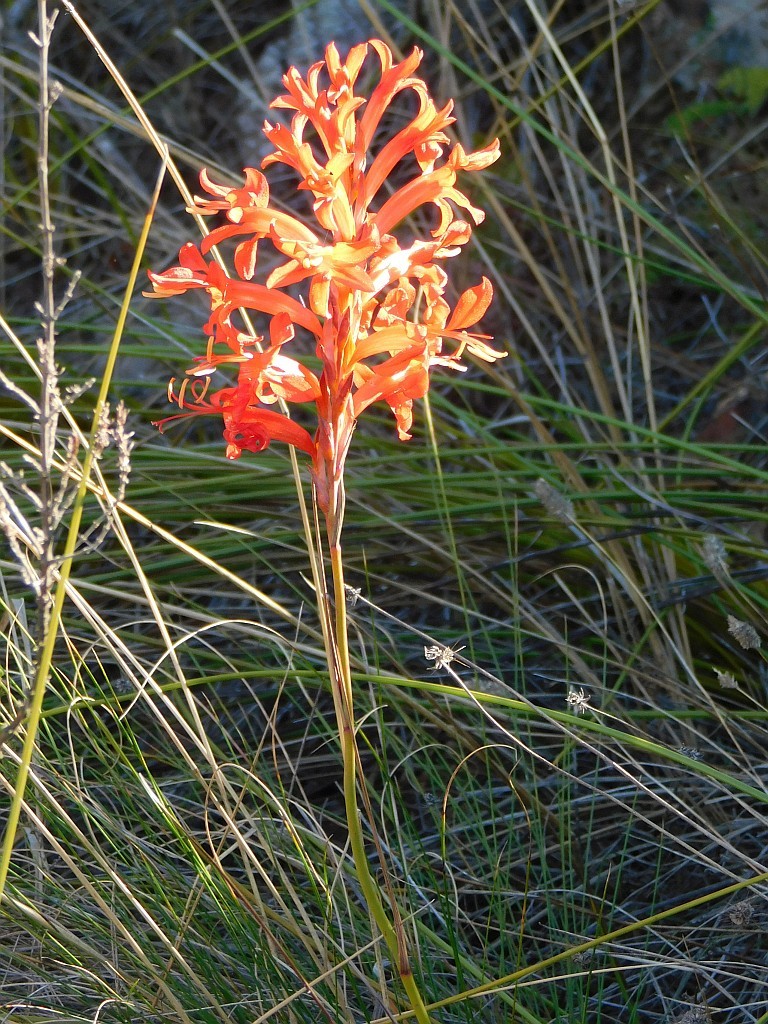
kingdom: Plantae
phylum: Tracheophyta
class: Liliopsida
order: Asparagales
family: Iridaceae
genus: Tritoniopsis
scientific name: Tritoniopsis triticea
